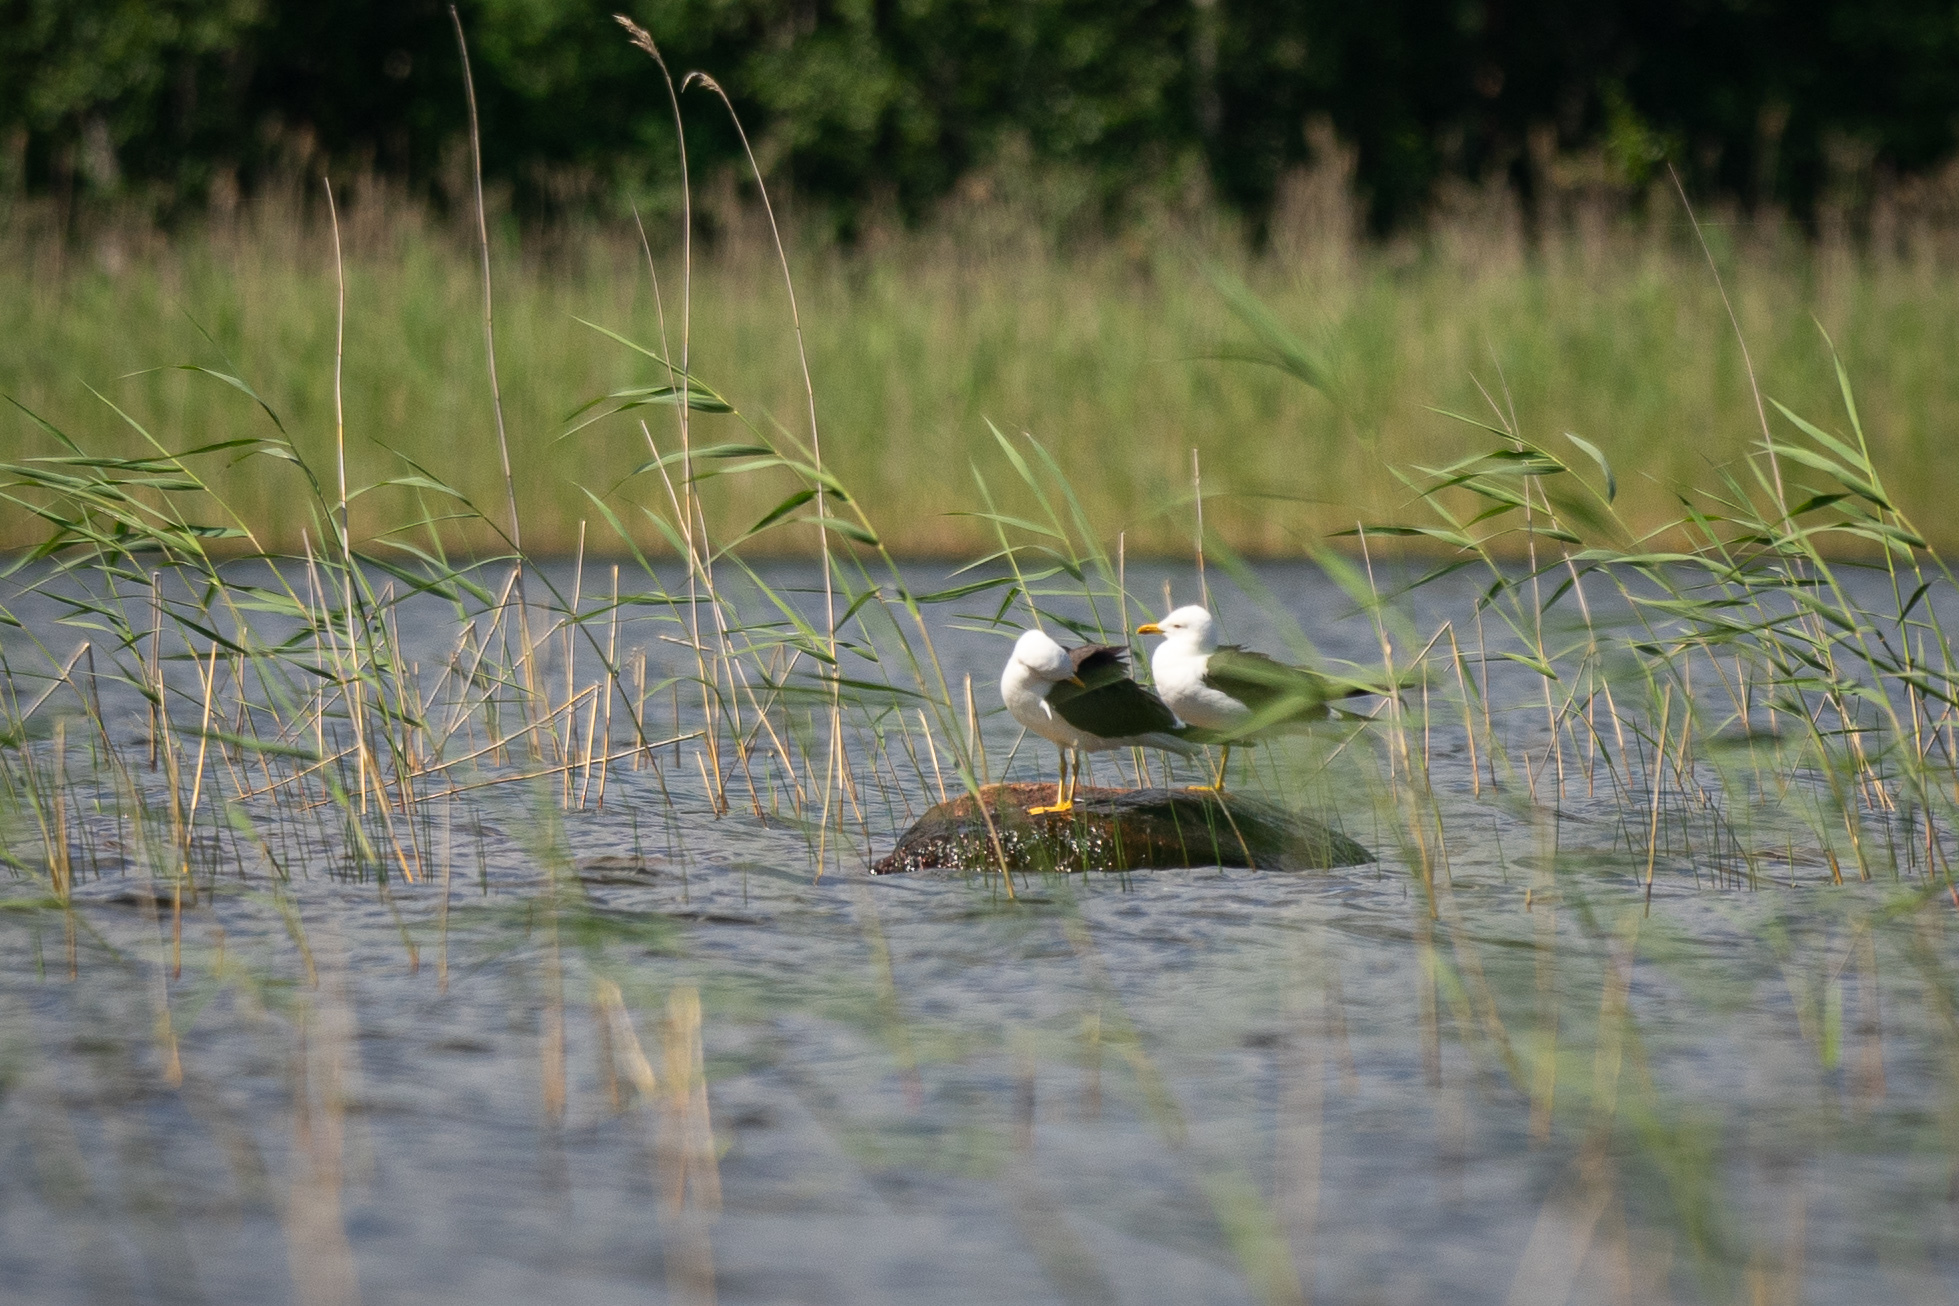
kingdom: Animalia
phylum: Chordata
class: Aves
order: Charadriiformes
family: Laridae
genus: Larus
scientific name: Larus fuscus
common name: Lesser black-backed gull
